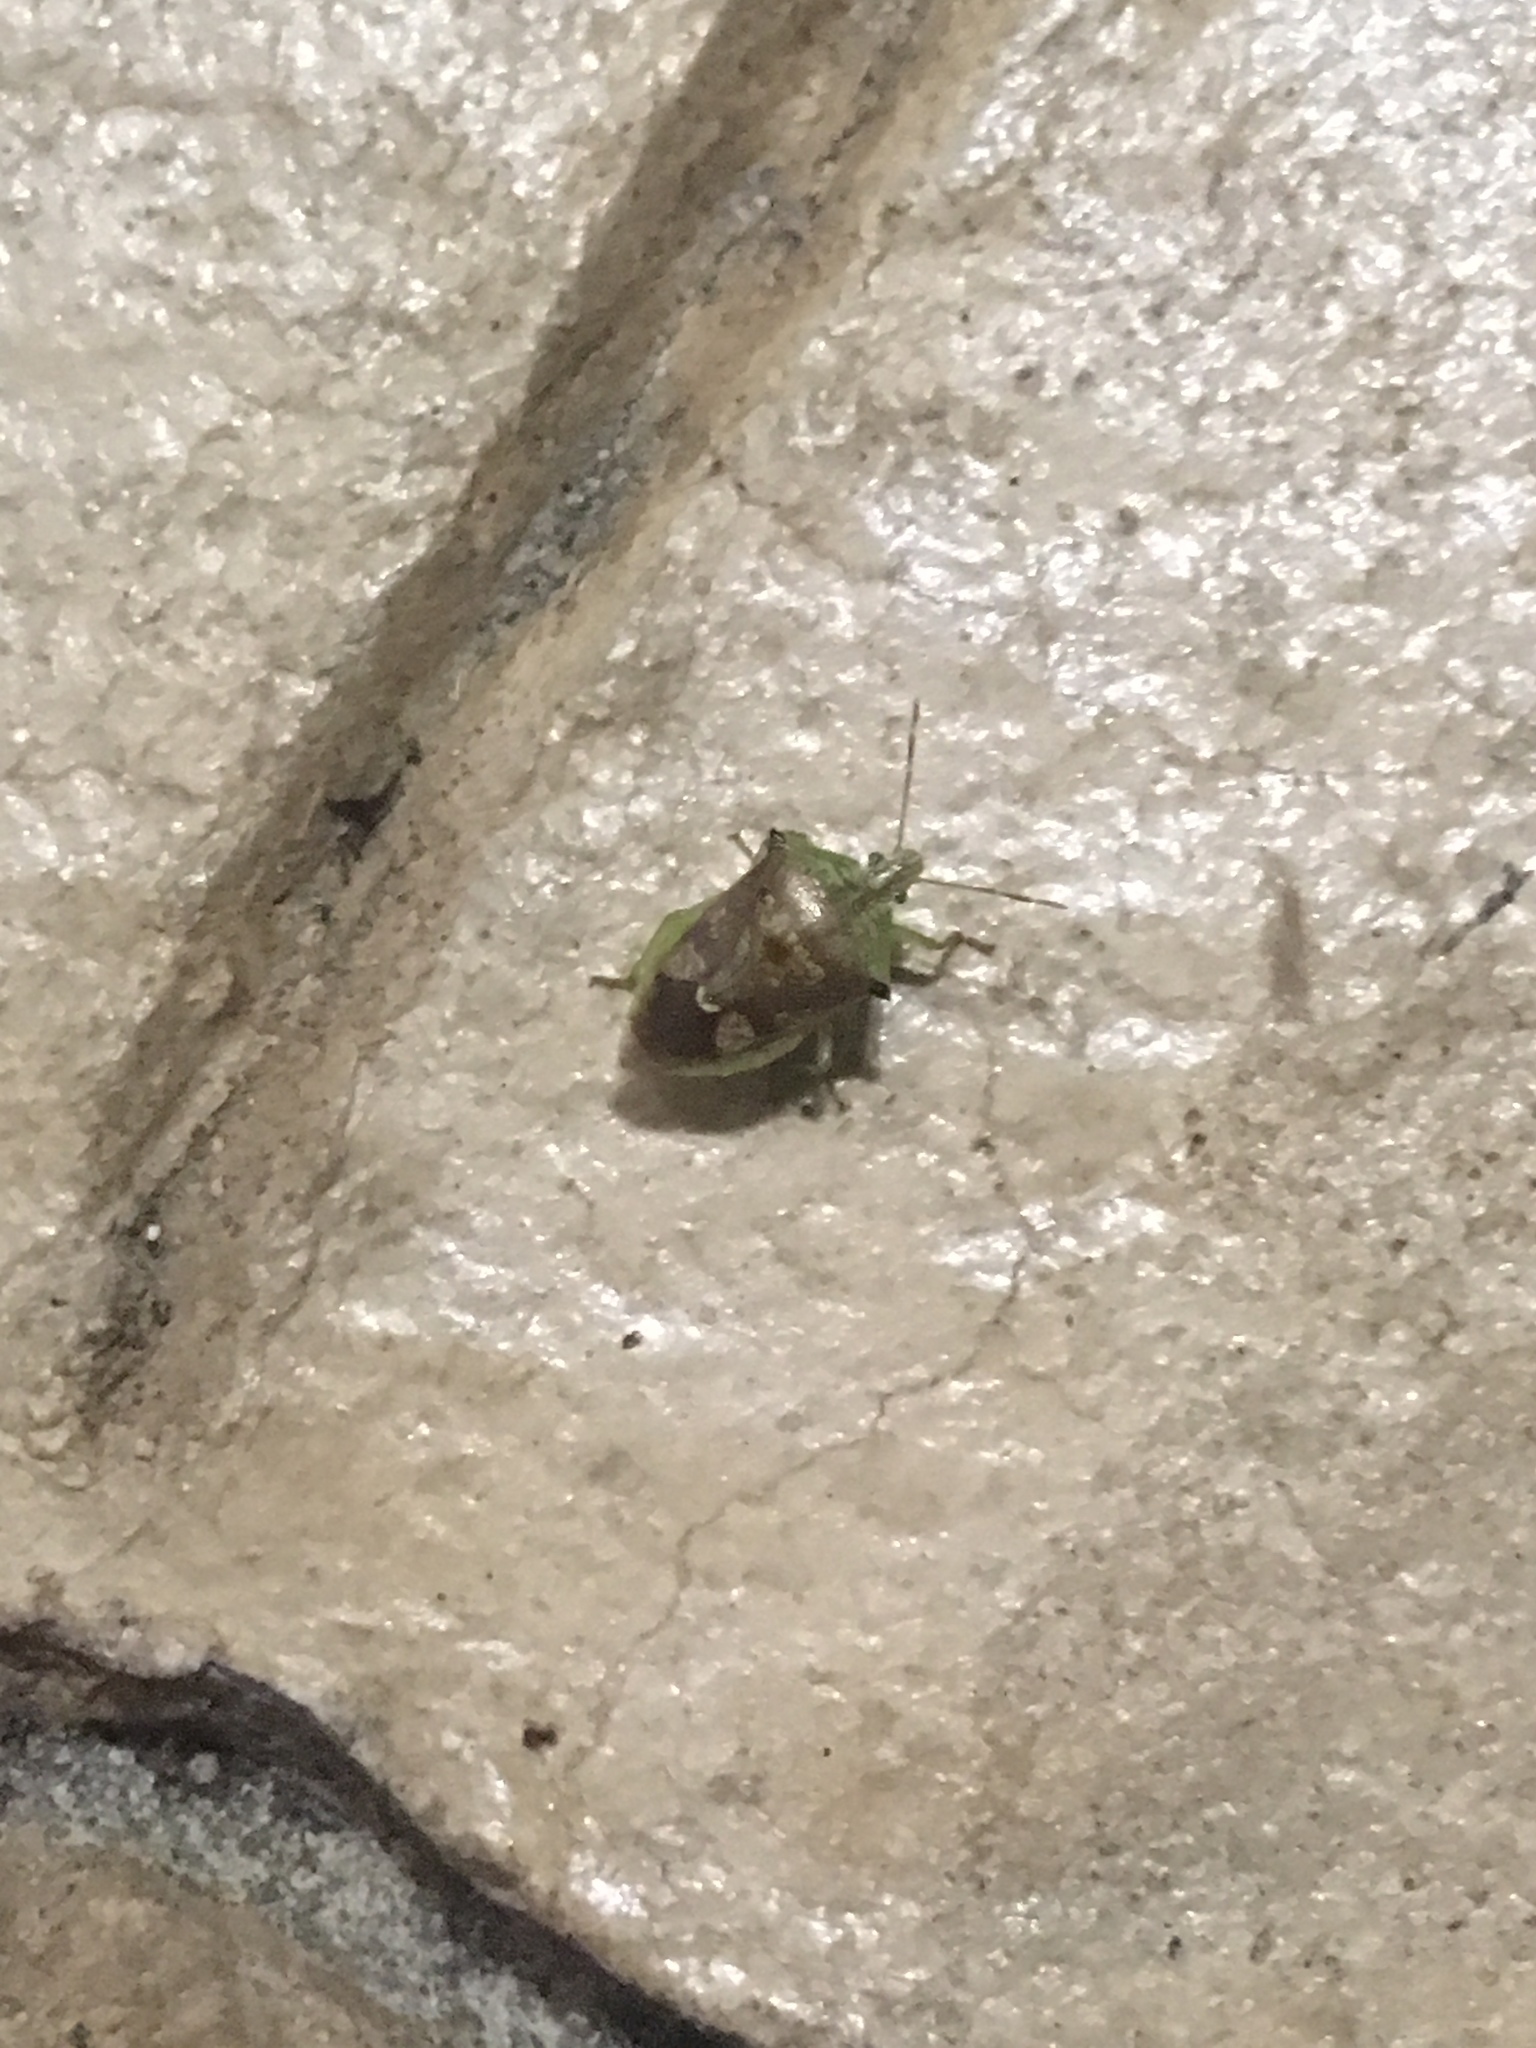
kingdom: Animalia
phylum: Arthropoda
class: Insecta
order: Hemiptera
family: Pentatomidae
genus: Tyrannocoris
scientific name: Tyrannocoris jole
